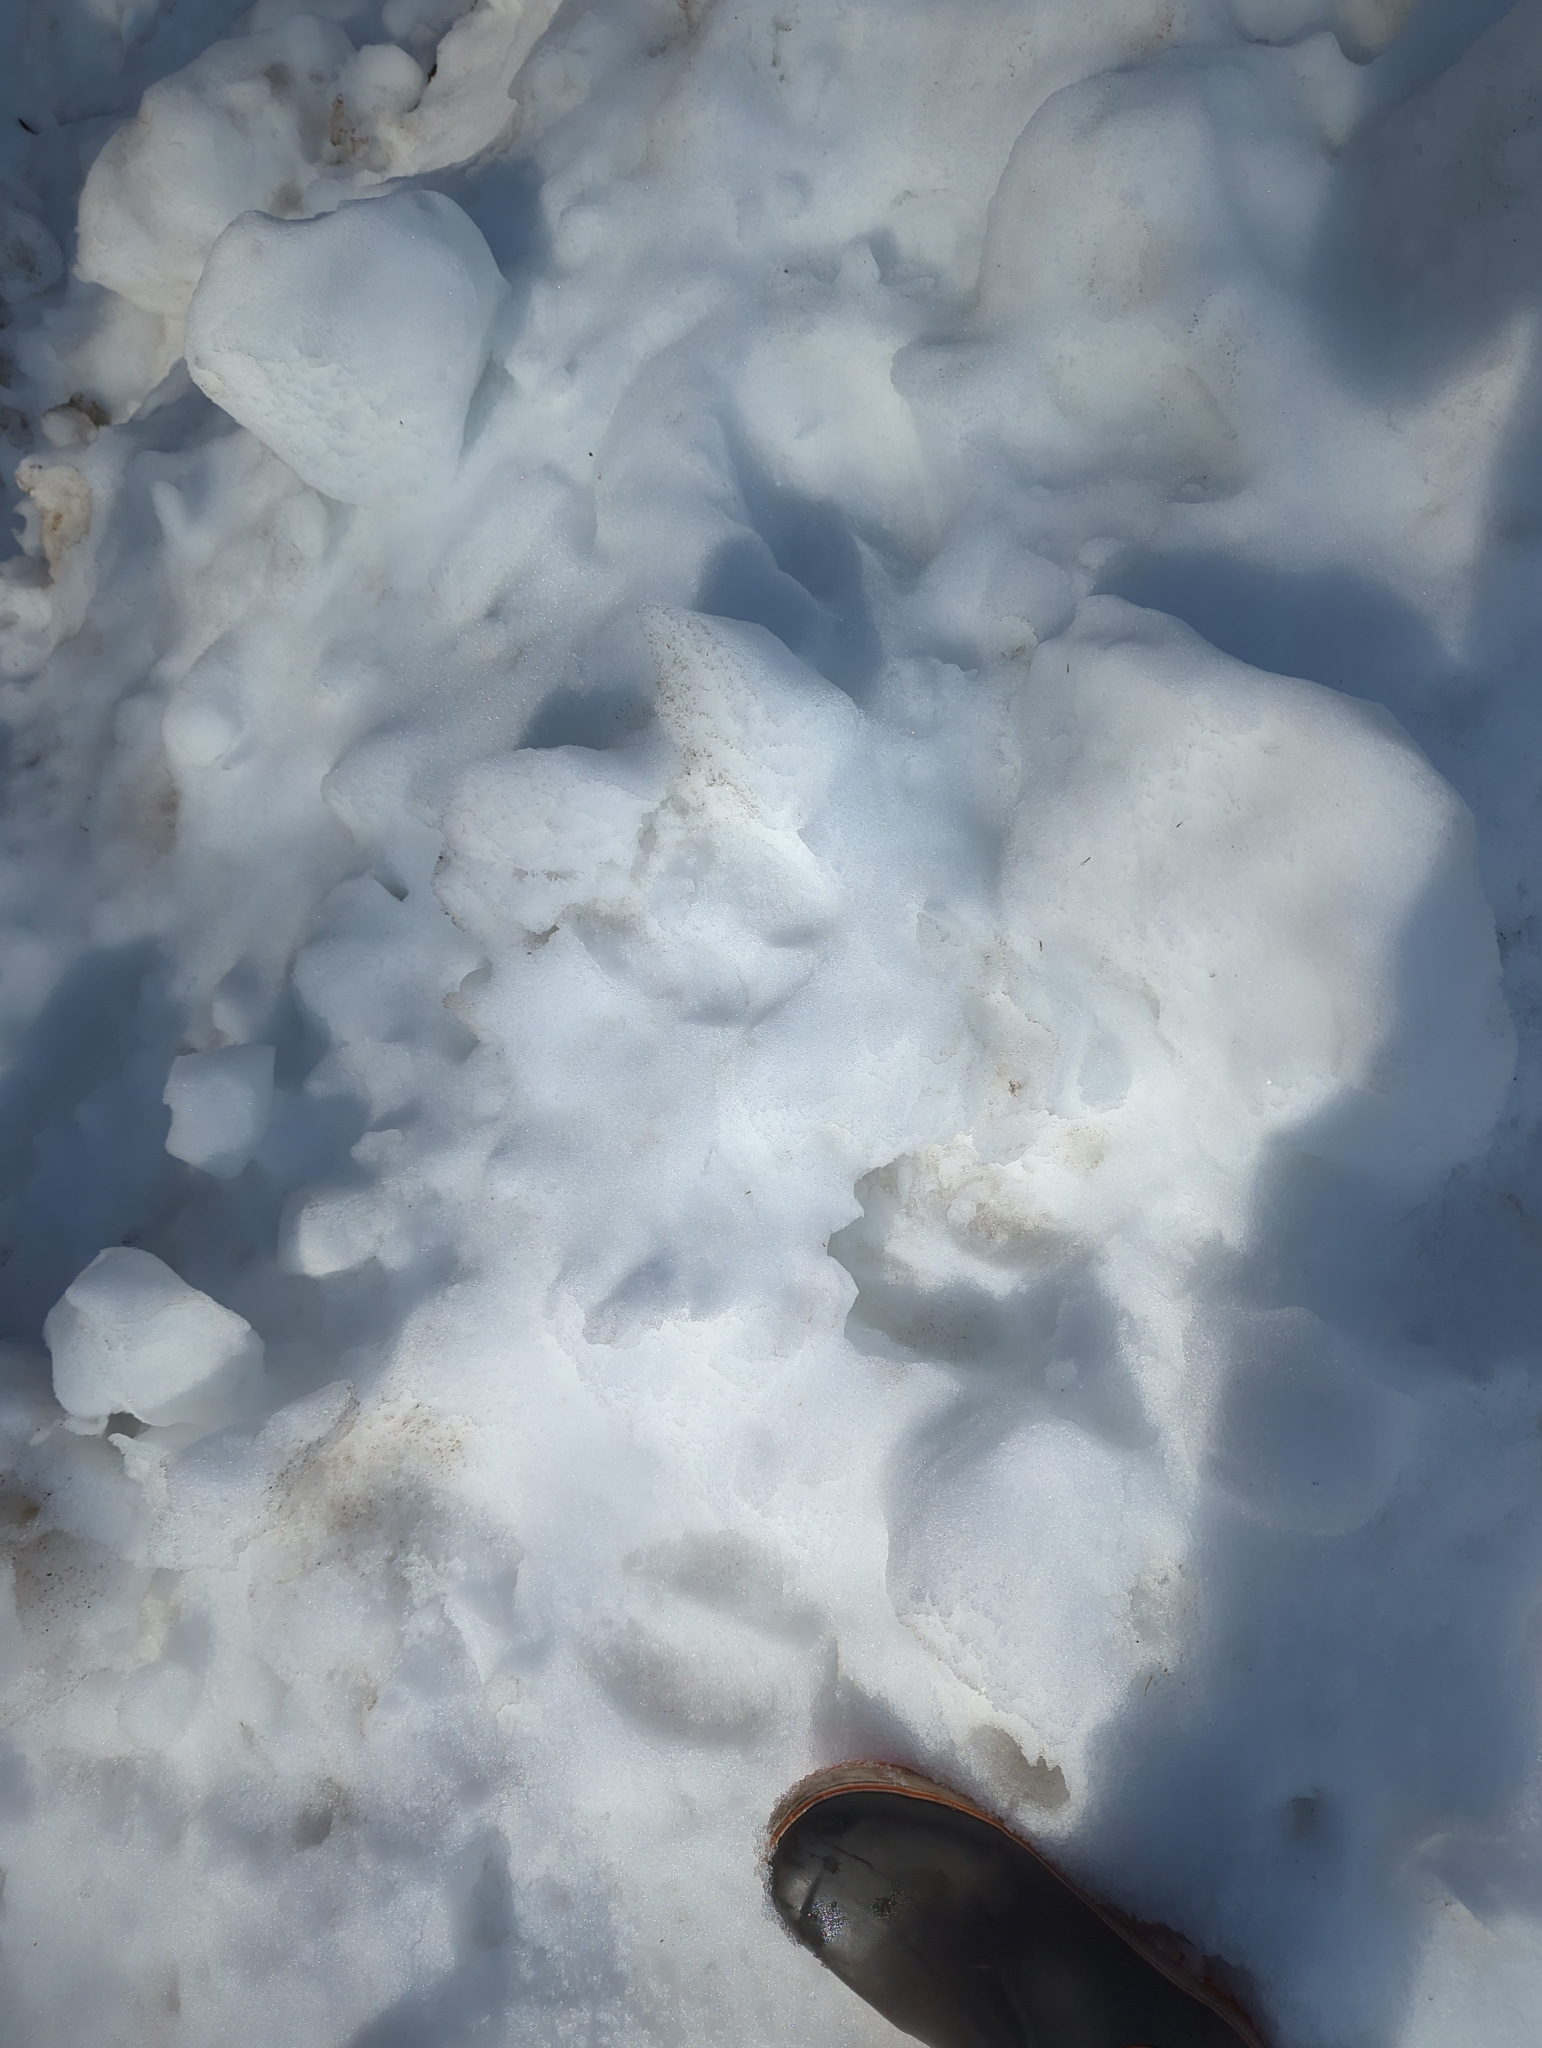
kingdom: Animalia
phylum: Chordata
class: Mammalia
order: Artiodactyla
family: Cervidae
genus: Alces
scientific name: Alces alces
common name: Moose
